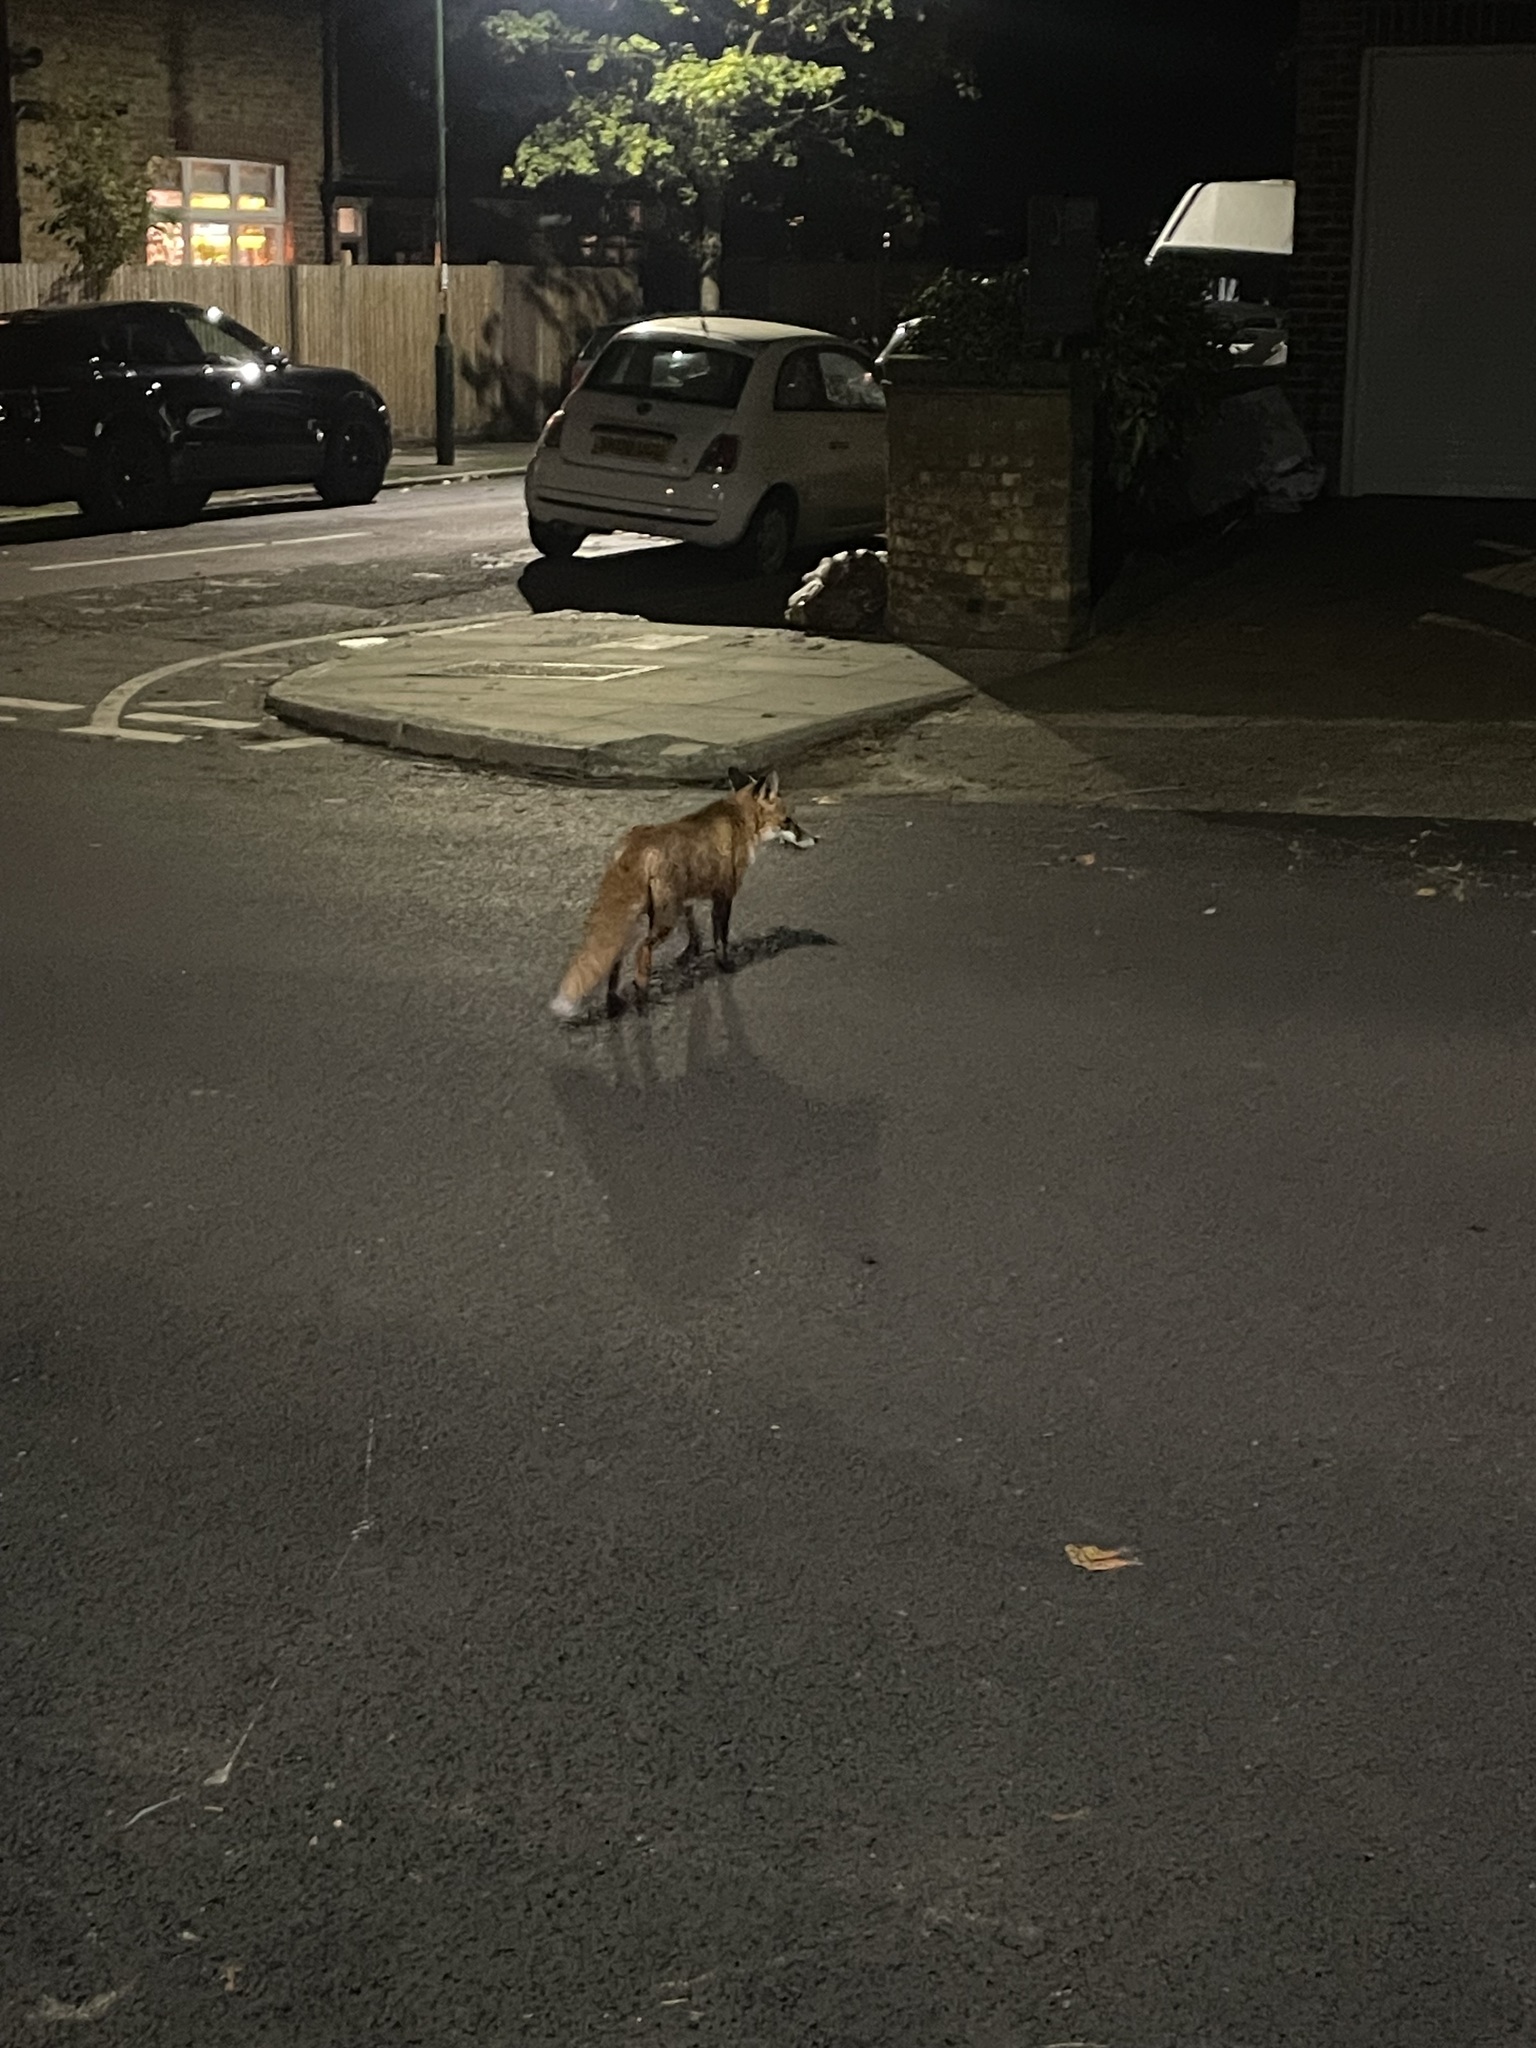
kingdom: Animalia
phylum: Chordata
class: Mammalia
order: Carnivora
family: Canidae
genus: Vulpes
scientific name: Vulpes vulpes
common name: Red fox
